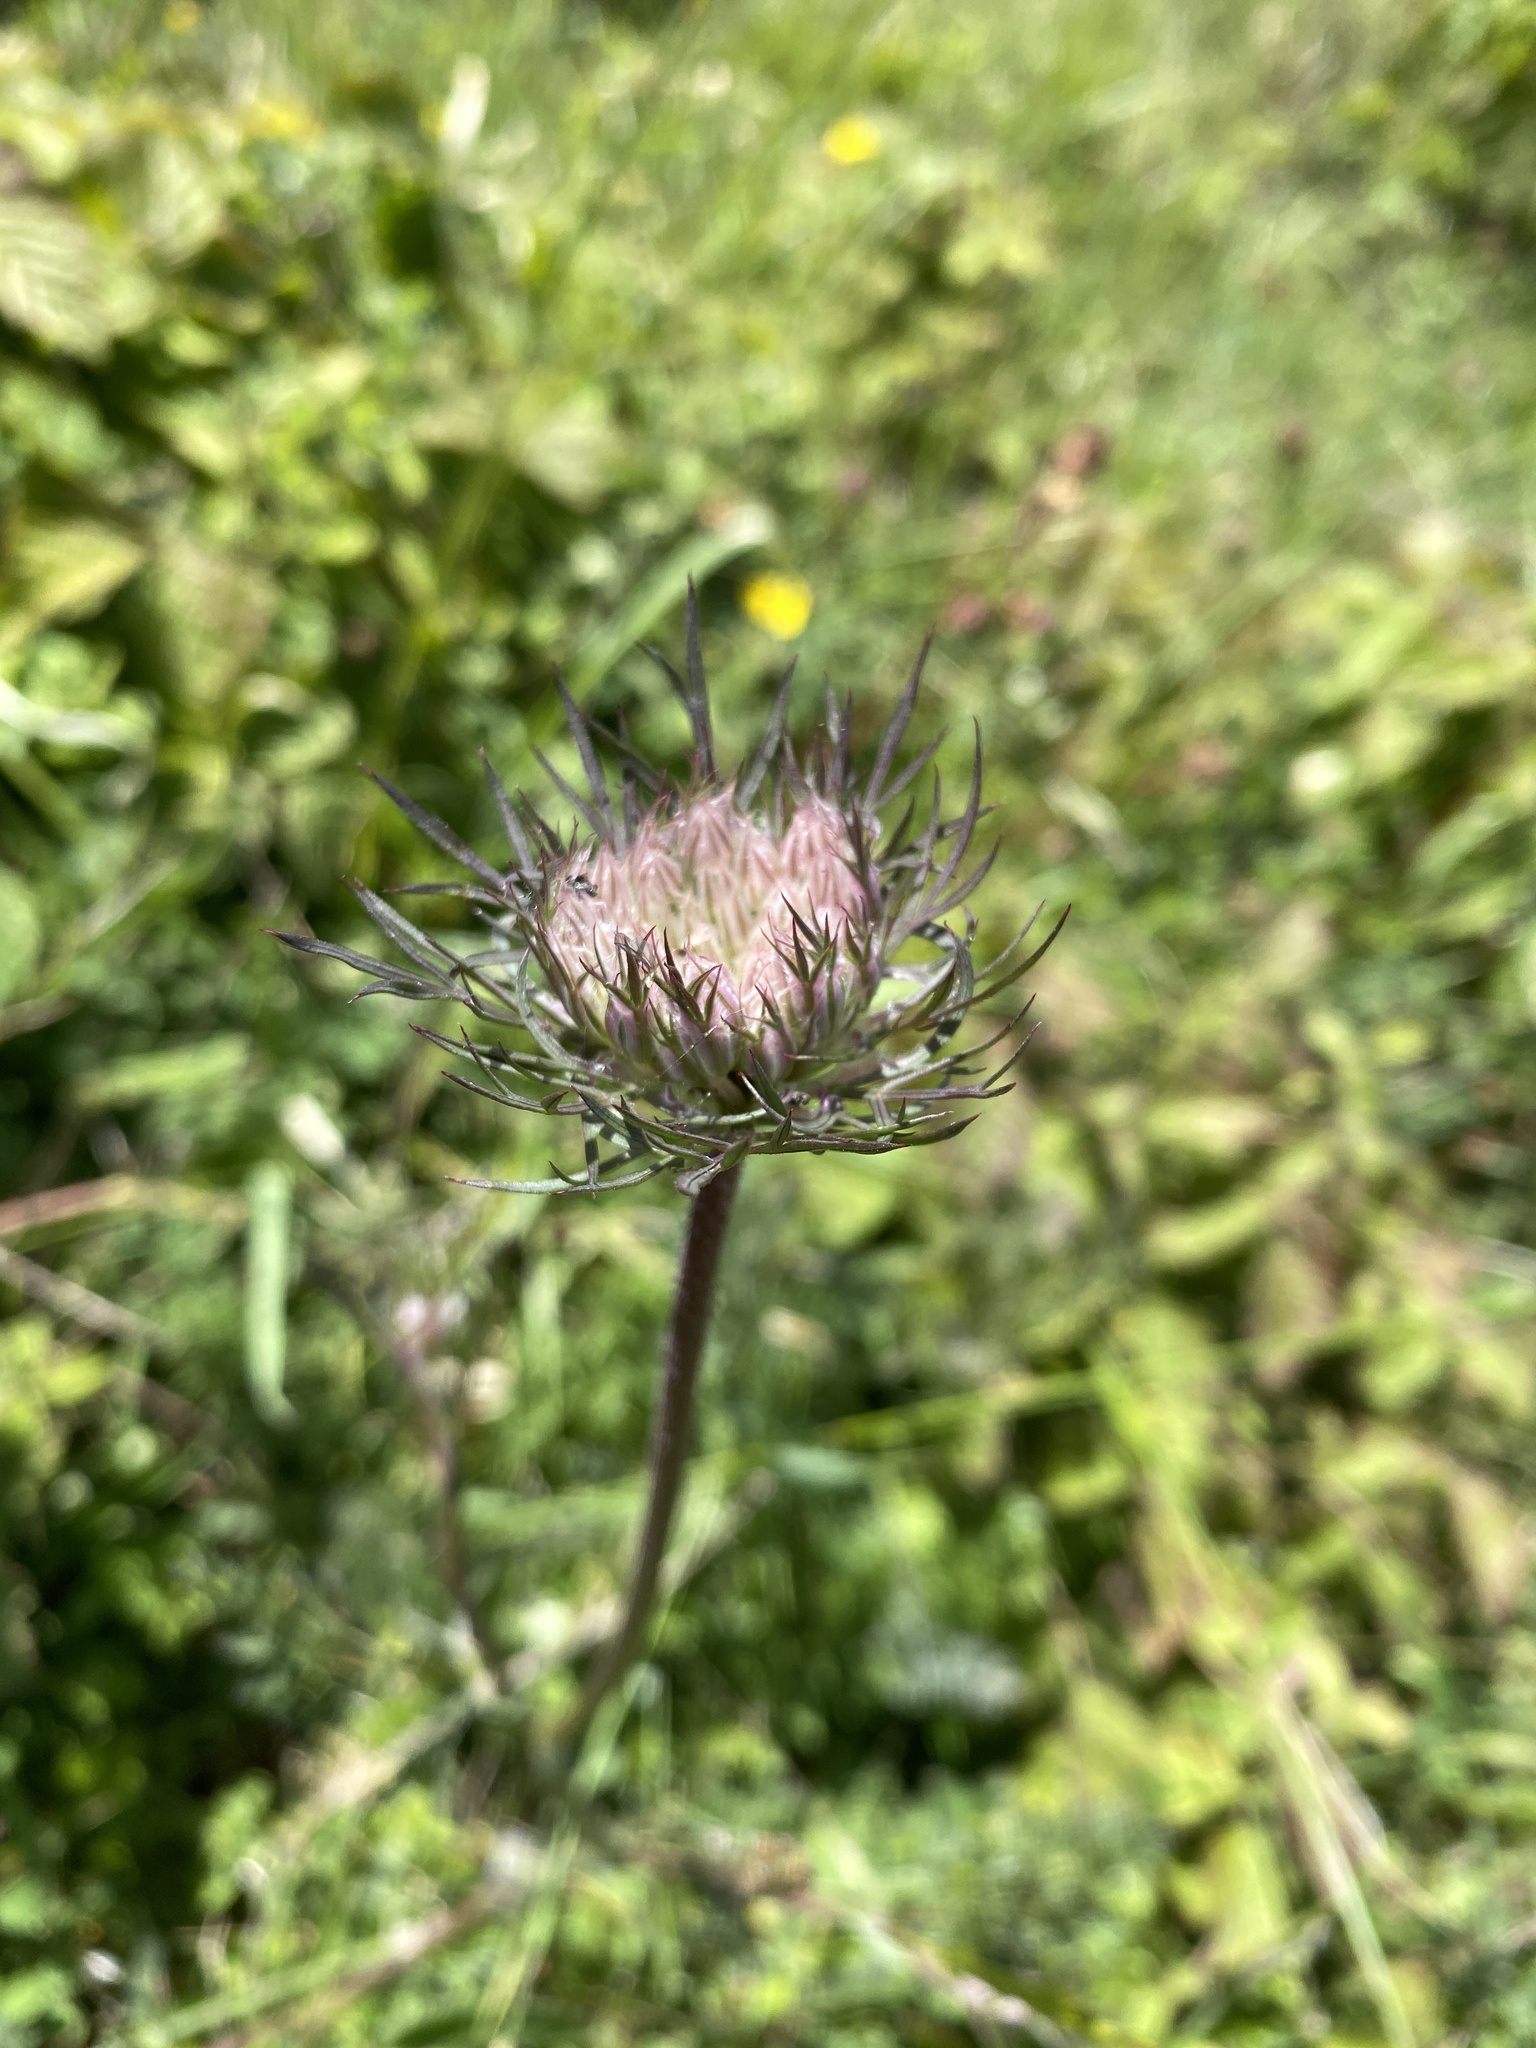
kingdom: Plantae
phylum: Tracheophyta
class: Magnoliopsida
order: Apiales
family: Apiaceae
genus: Daucus
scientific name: Daucus carota
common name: Wild carrot
